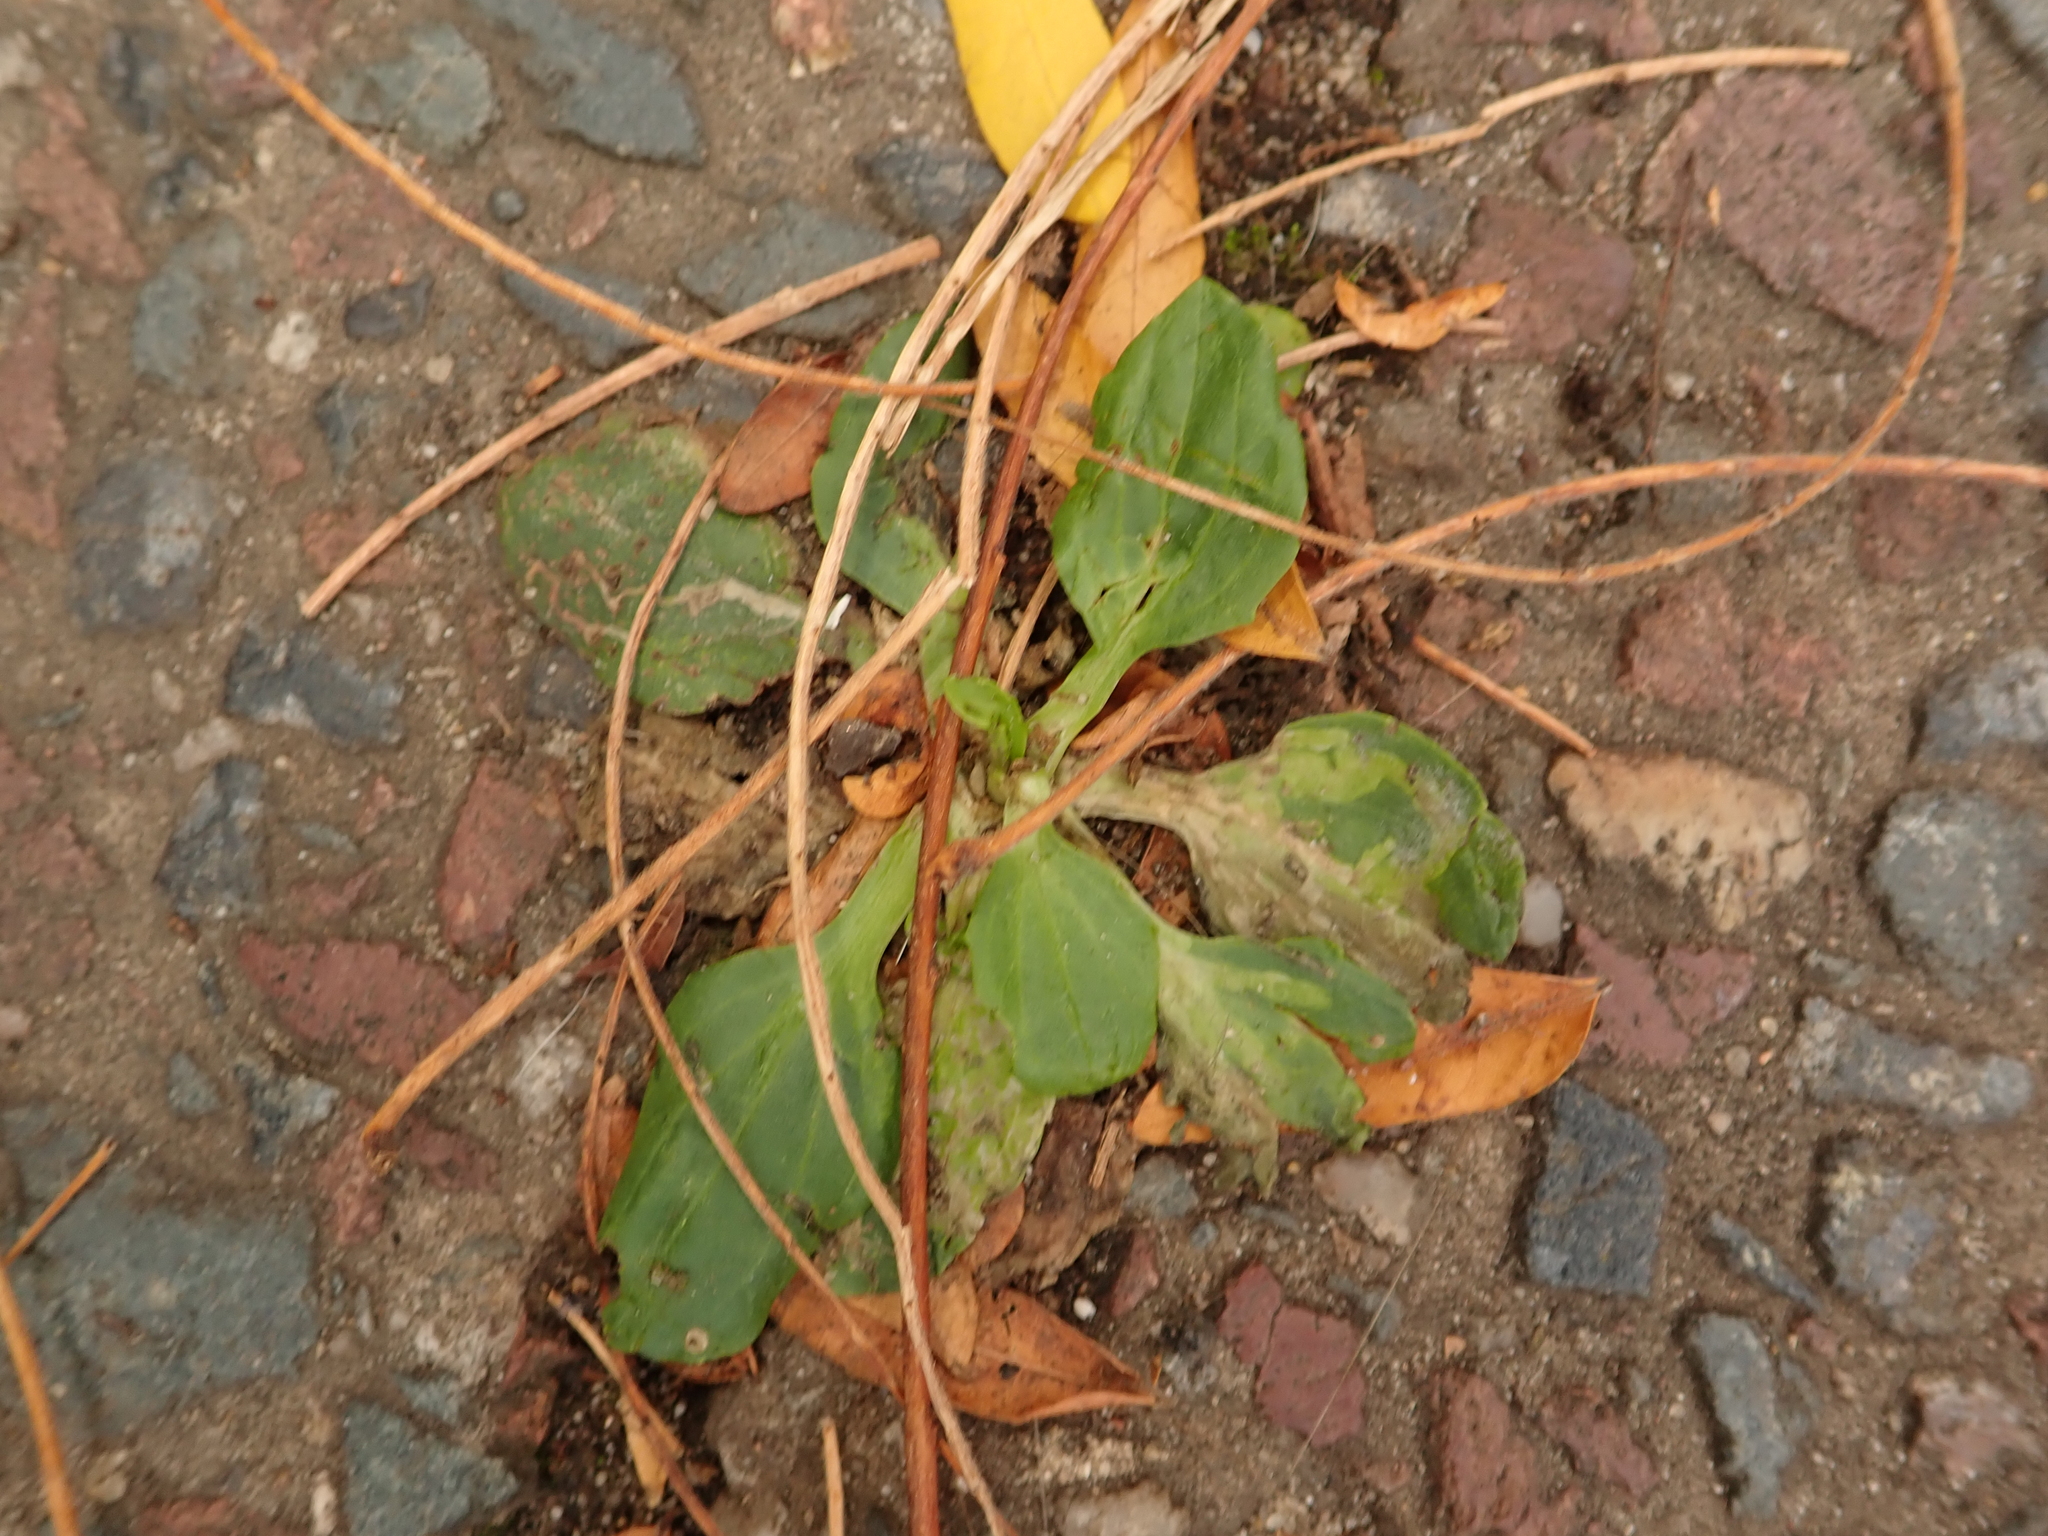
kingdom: Plantae
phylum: Tracheophyta
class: Magnoliopsida
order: Lamiales
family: Plantaginaceae
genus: Plantago
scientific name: Plantago major
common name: Common plantain
